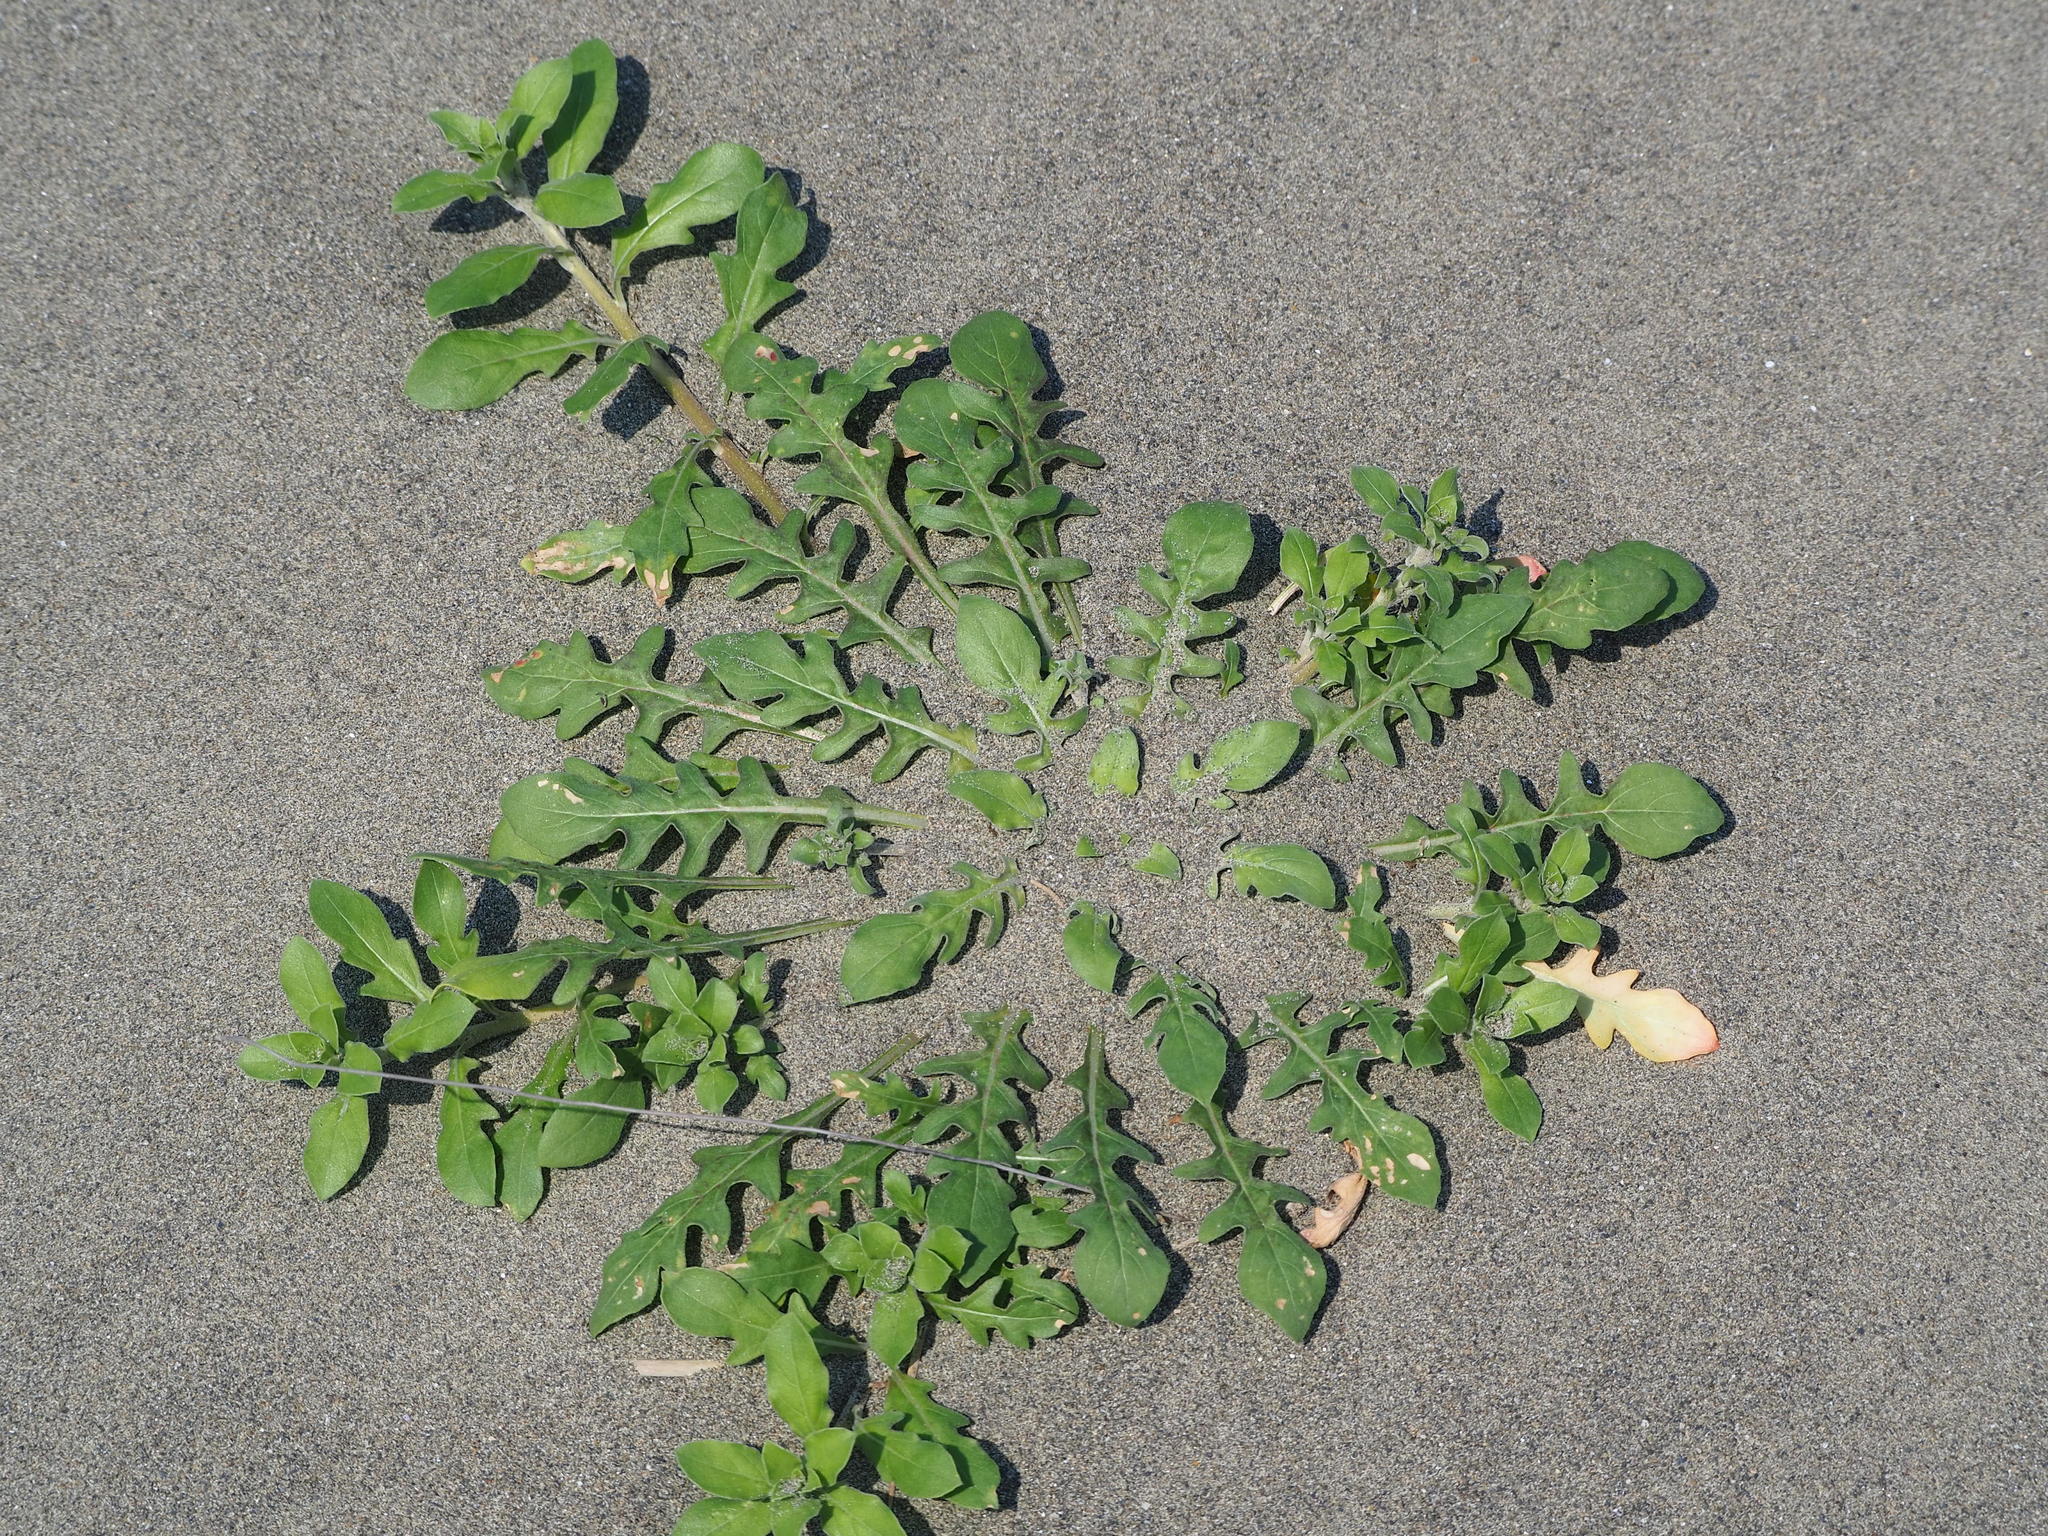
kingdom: Plantae
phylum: Tracheophyta
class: Magnoliopsida
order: Myrtales
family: Onagraceae
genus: Oenothera
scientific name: Oenothera laciniata
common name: Cut-leaved evening-primrose
